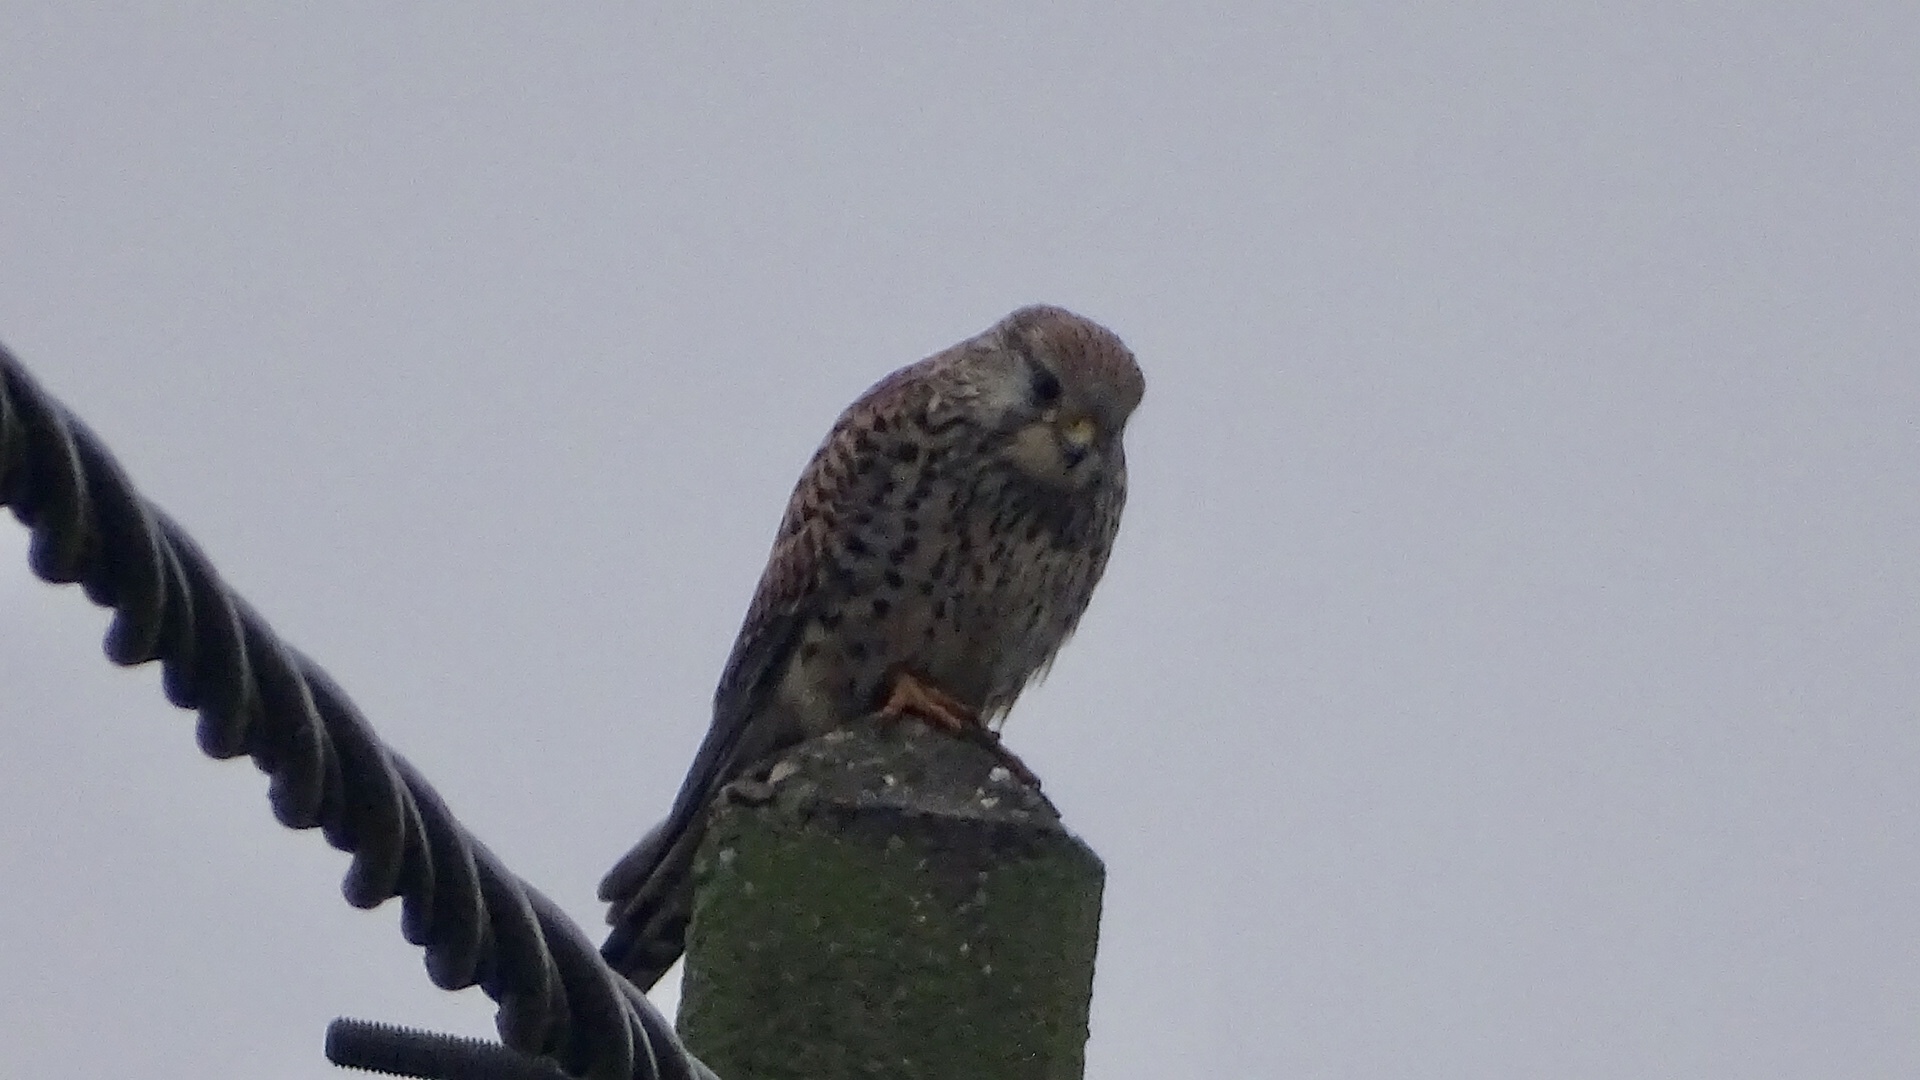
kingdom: Animalia
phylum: Chordata
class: Aves
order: Falconiformes
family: Falconidae
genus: Falco
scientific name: Falco tinnunculus
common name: Common kestrel
